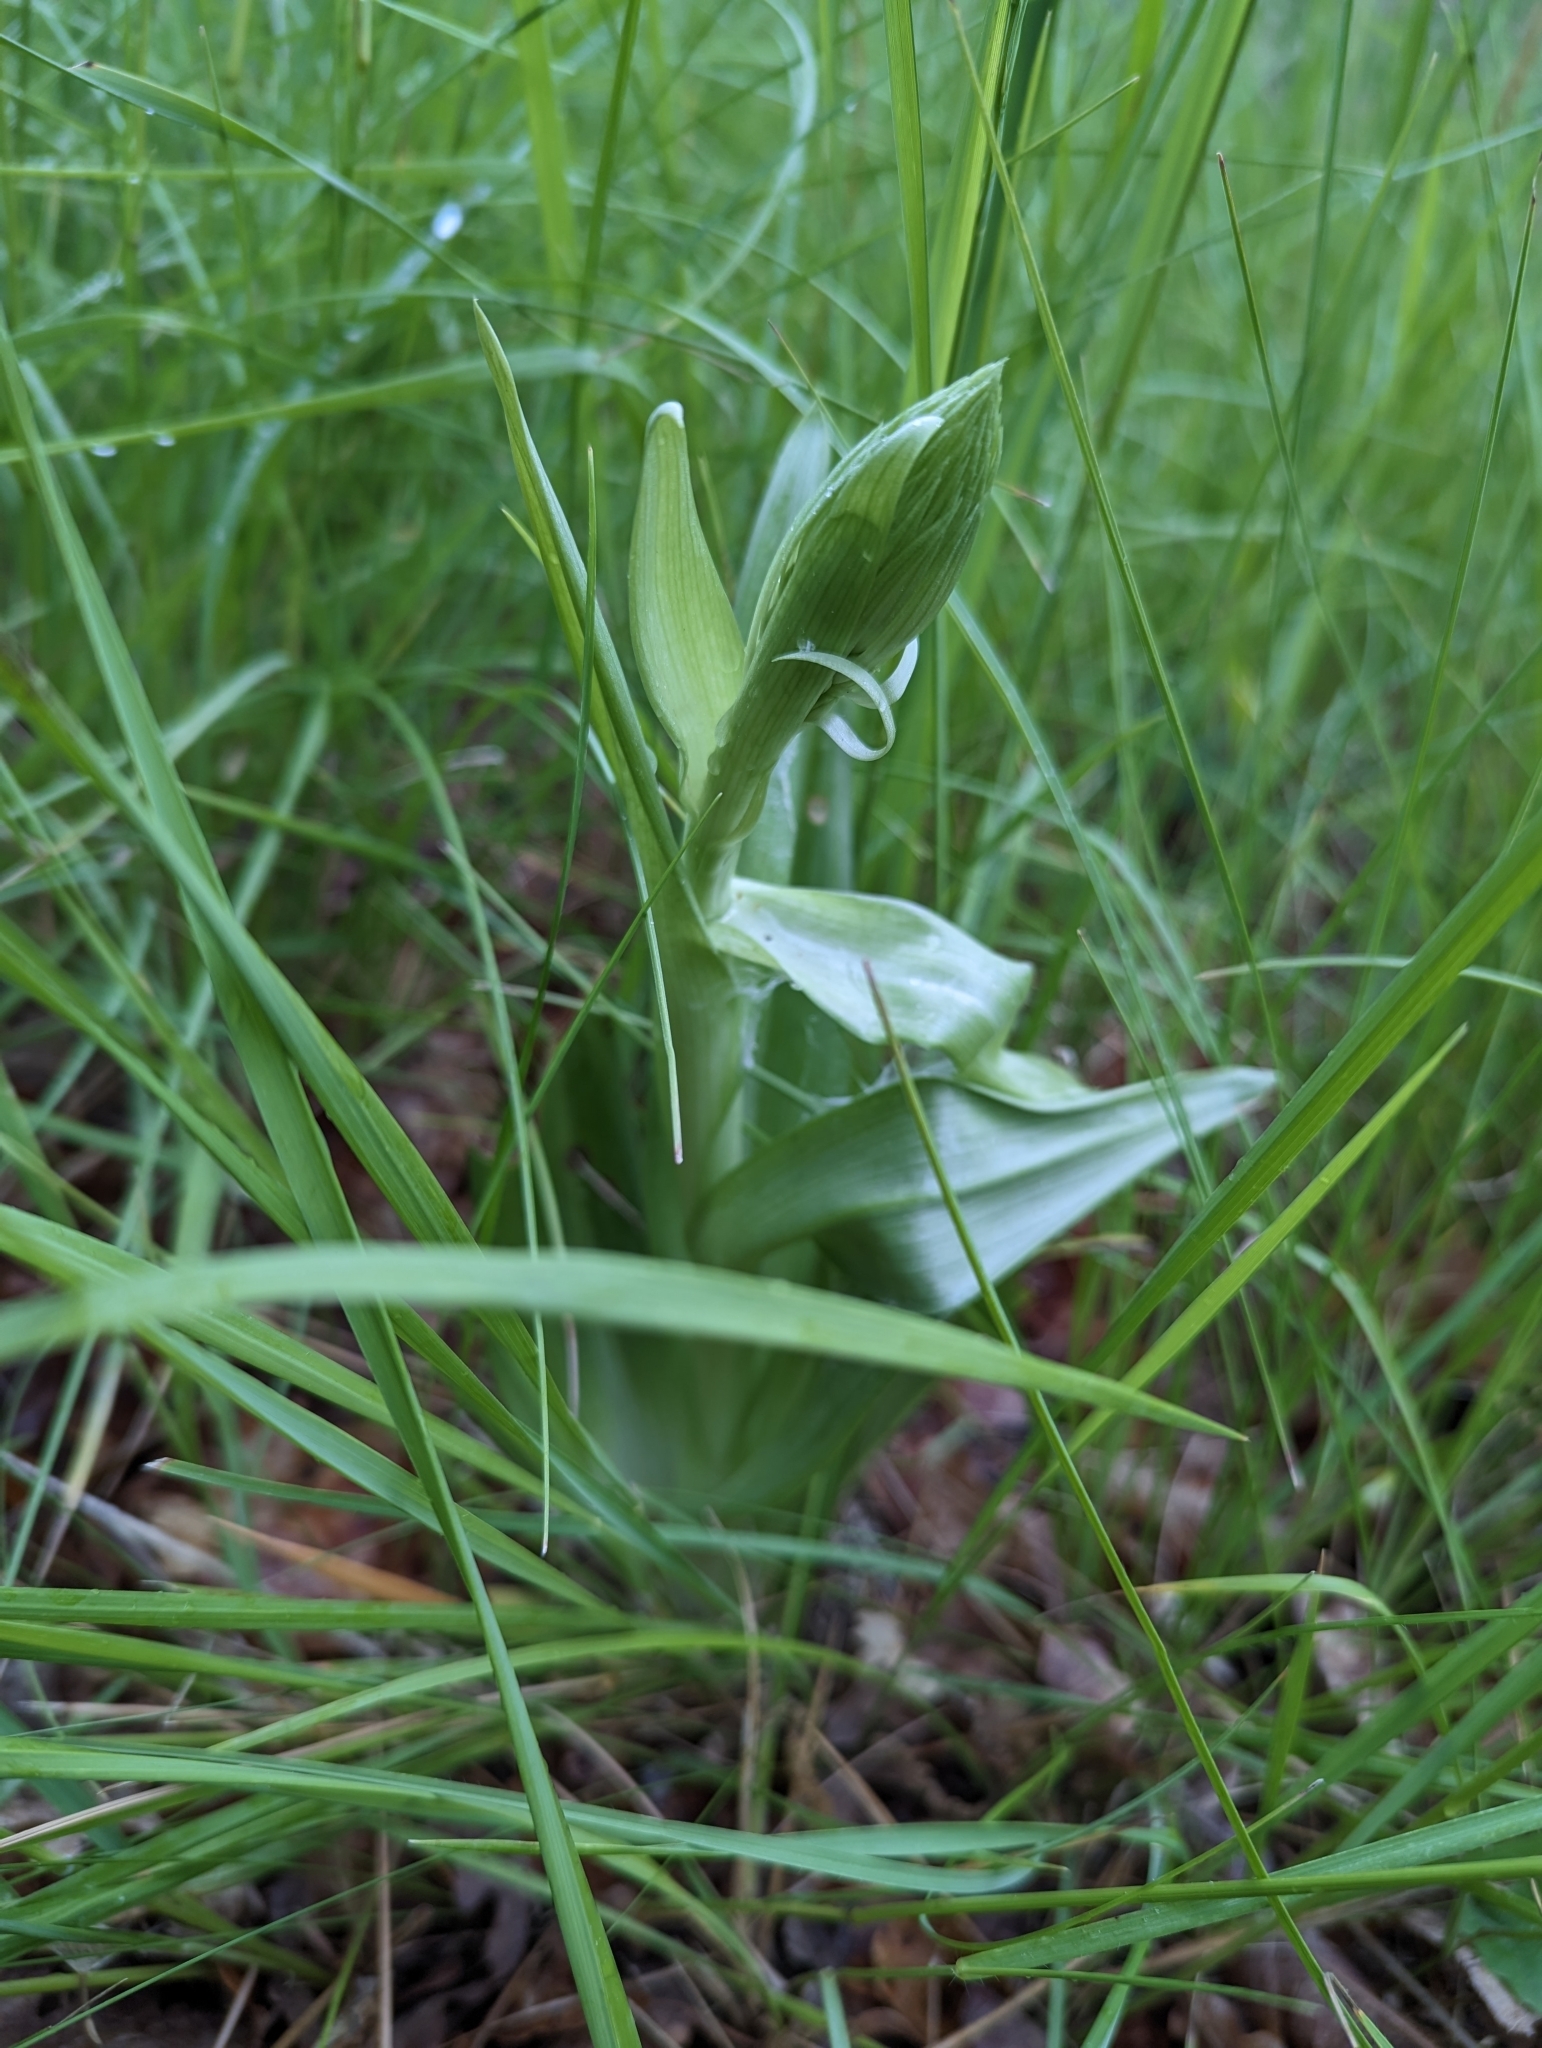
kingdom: Plantae
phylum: Tracheophyta
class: Liliopsida
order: Asparagales
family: Orchidaceae
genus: Himantoglossum
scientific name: Himantoglossum hircinum
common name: Lizard orchid
